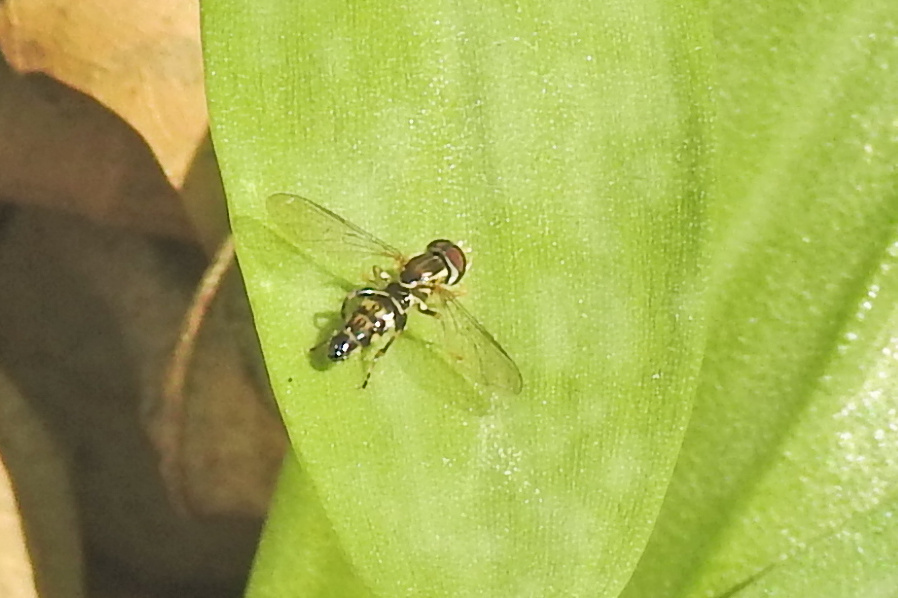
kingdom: Animalia
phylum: Arthropoda
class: Insecta
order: Diptera
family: Syrphidae
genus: Toxomerus
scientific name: Toxomerus geminatus
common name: Eastern calligrapher
